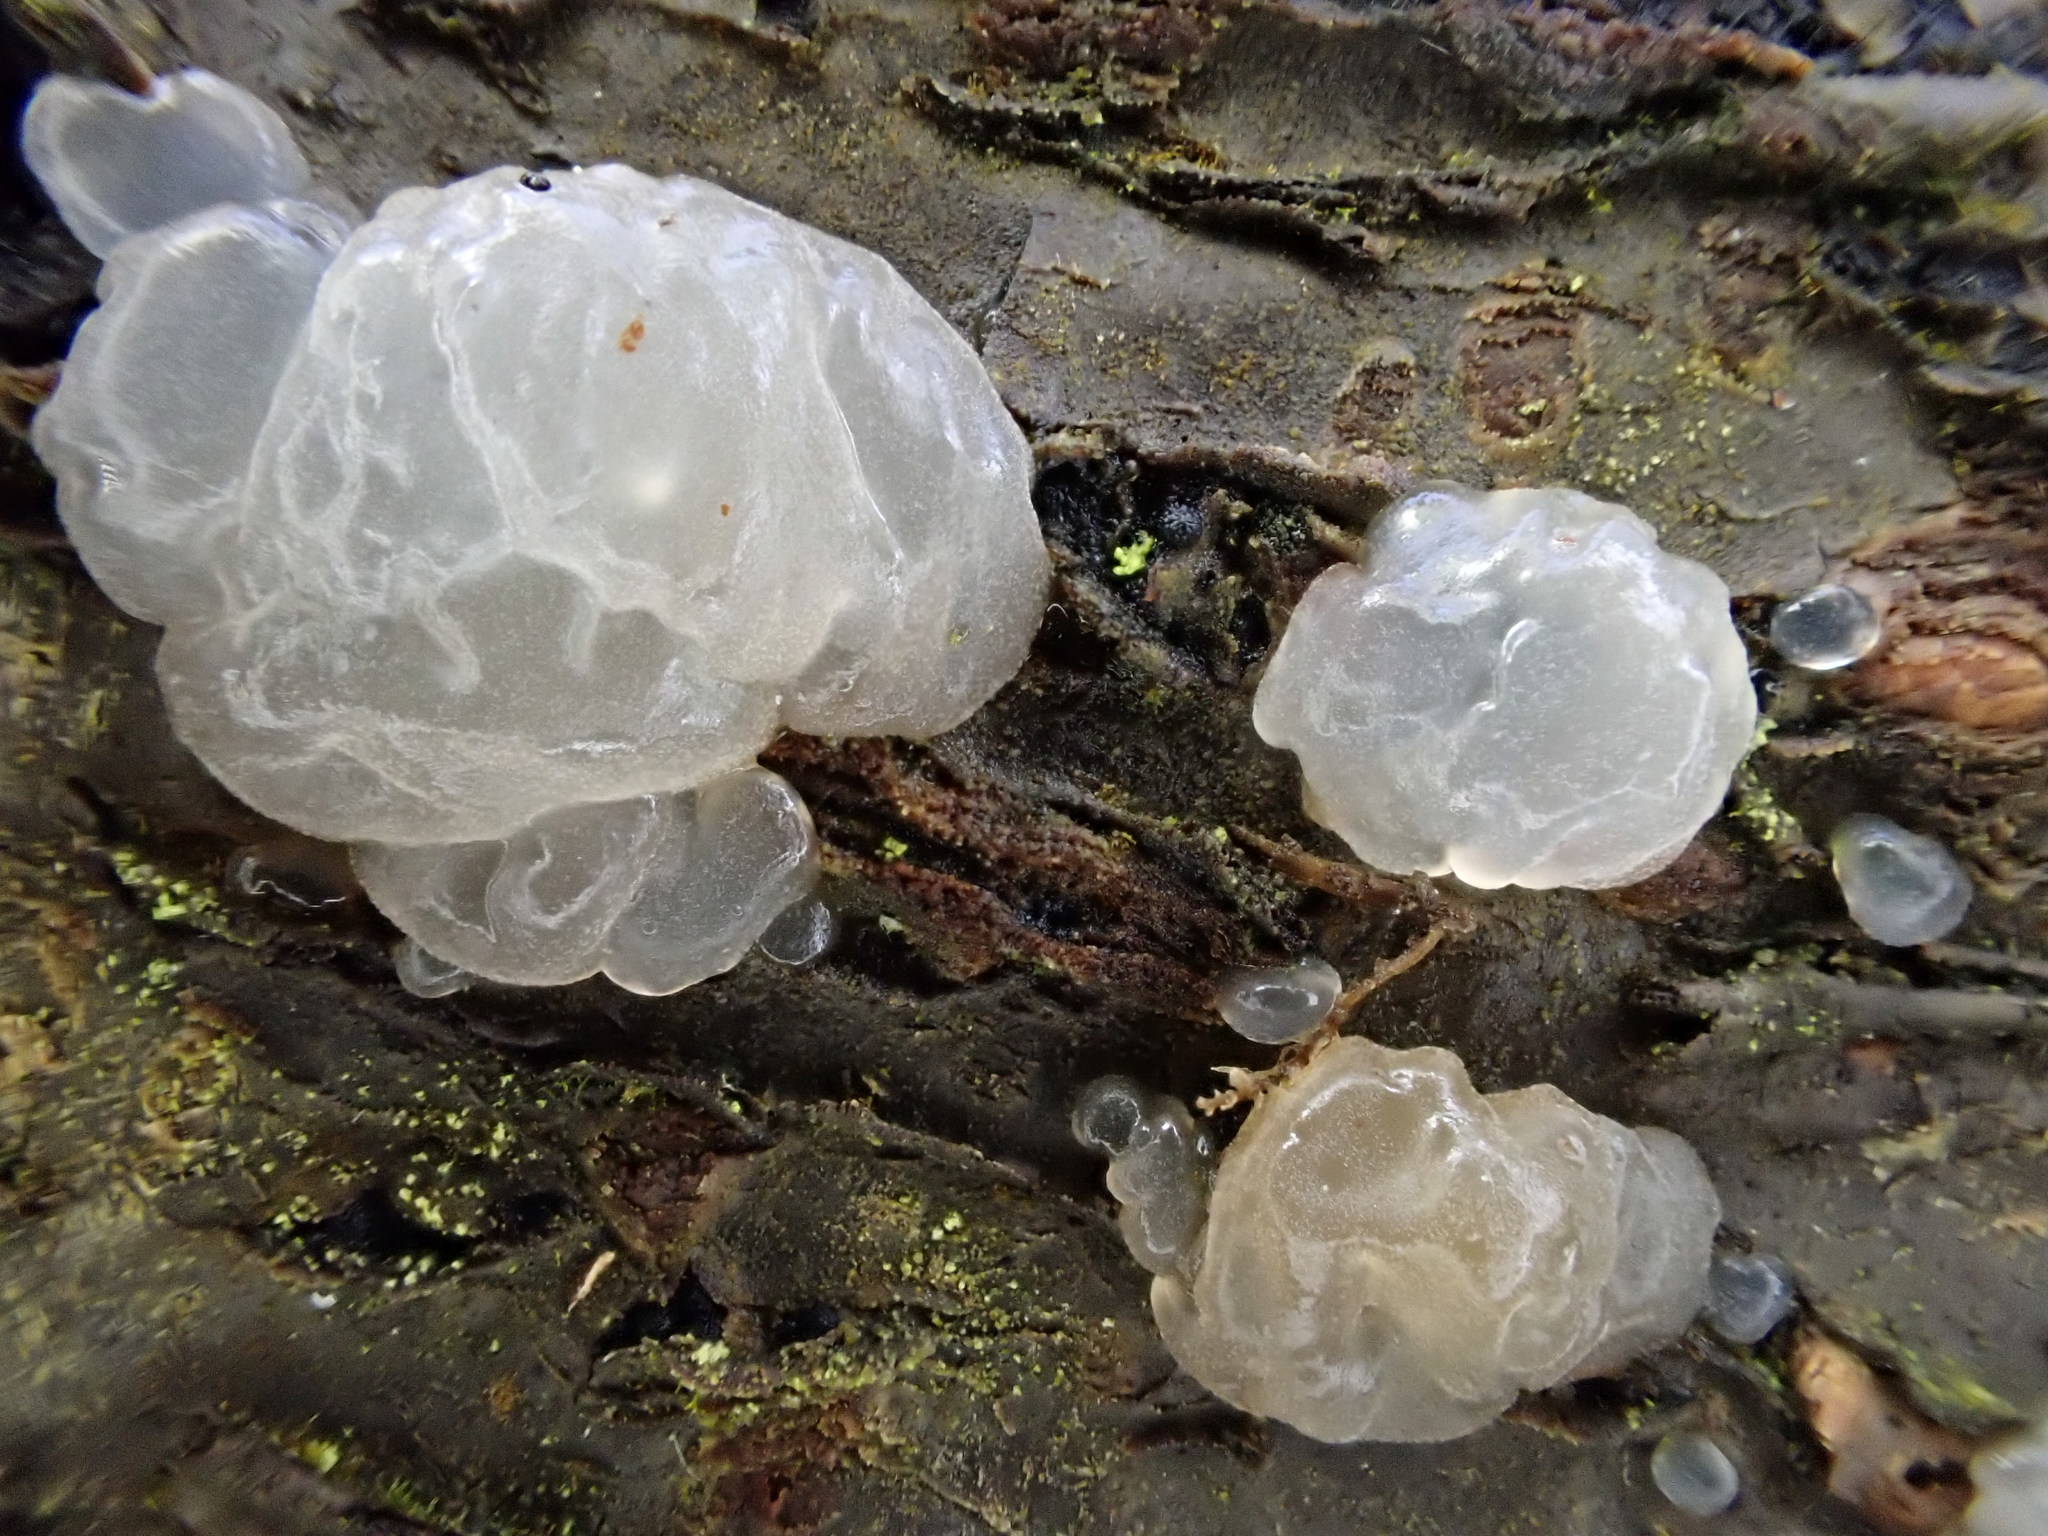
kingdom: Fungi
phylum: Basidiomycota
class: Agaricomycetes
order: Auriculariales
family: Hyaloriaceae
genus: Myxarium
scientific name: Myxarium nucleatum
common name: Crystal brain fungus
